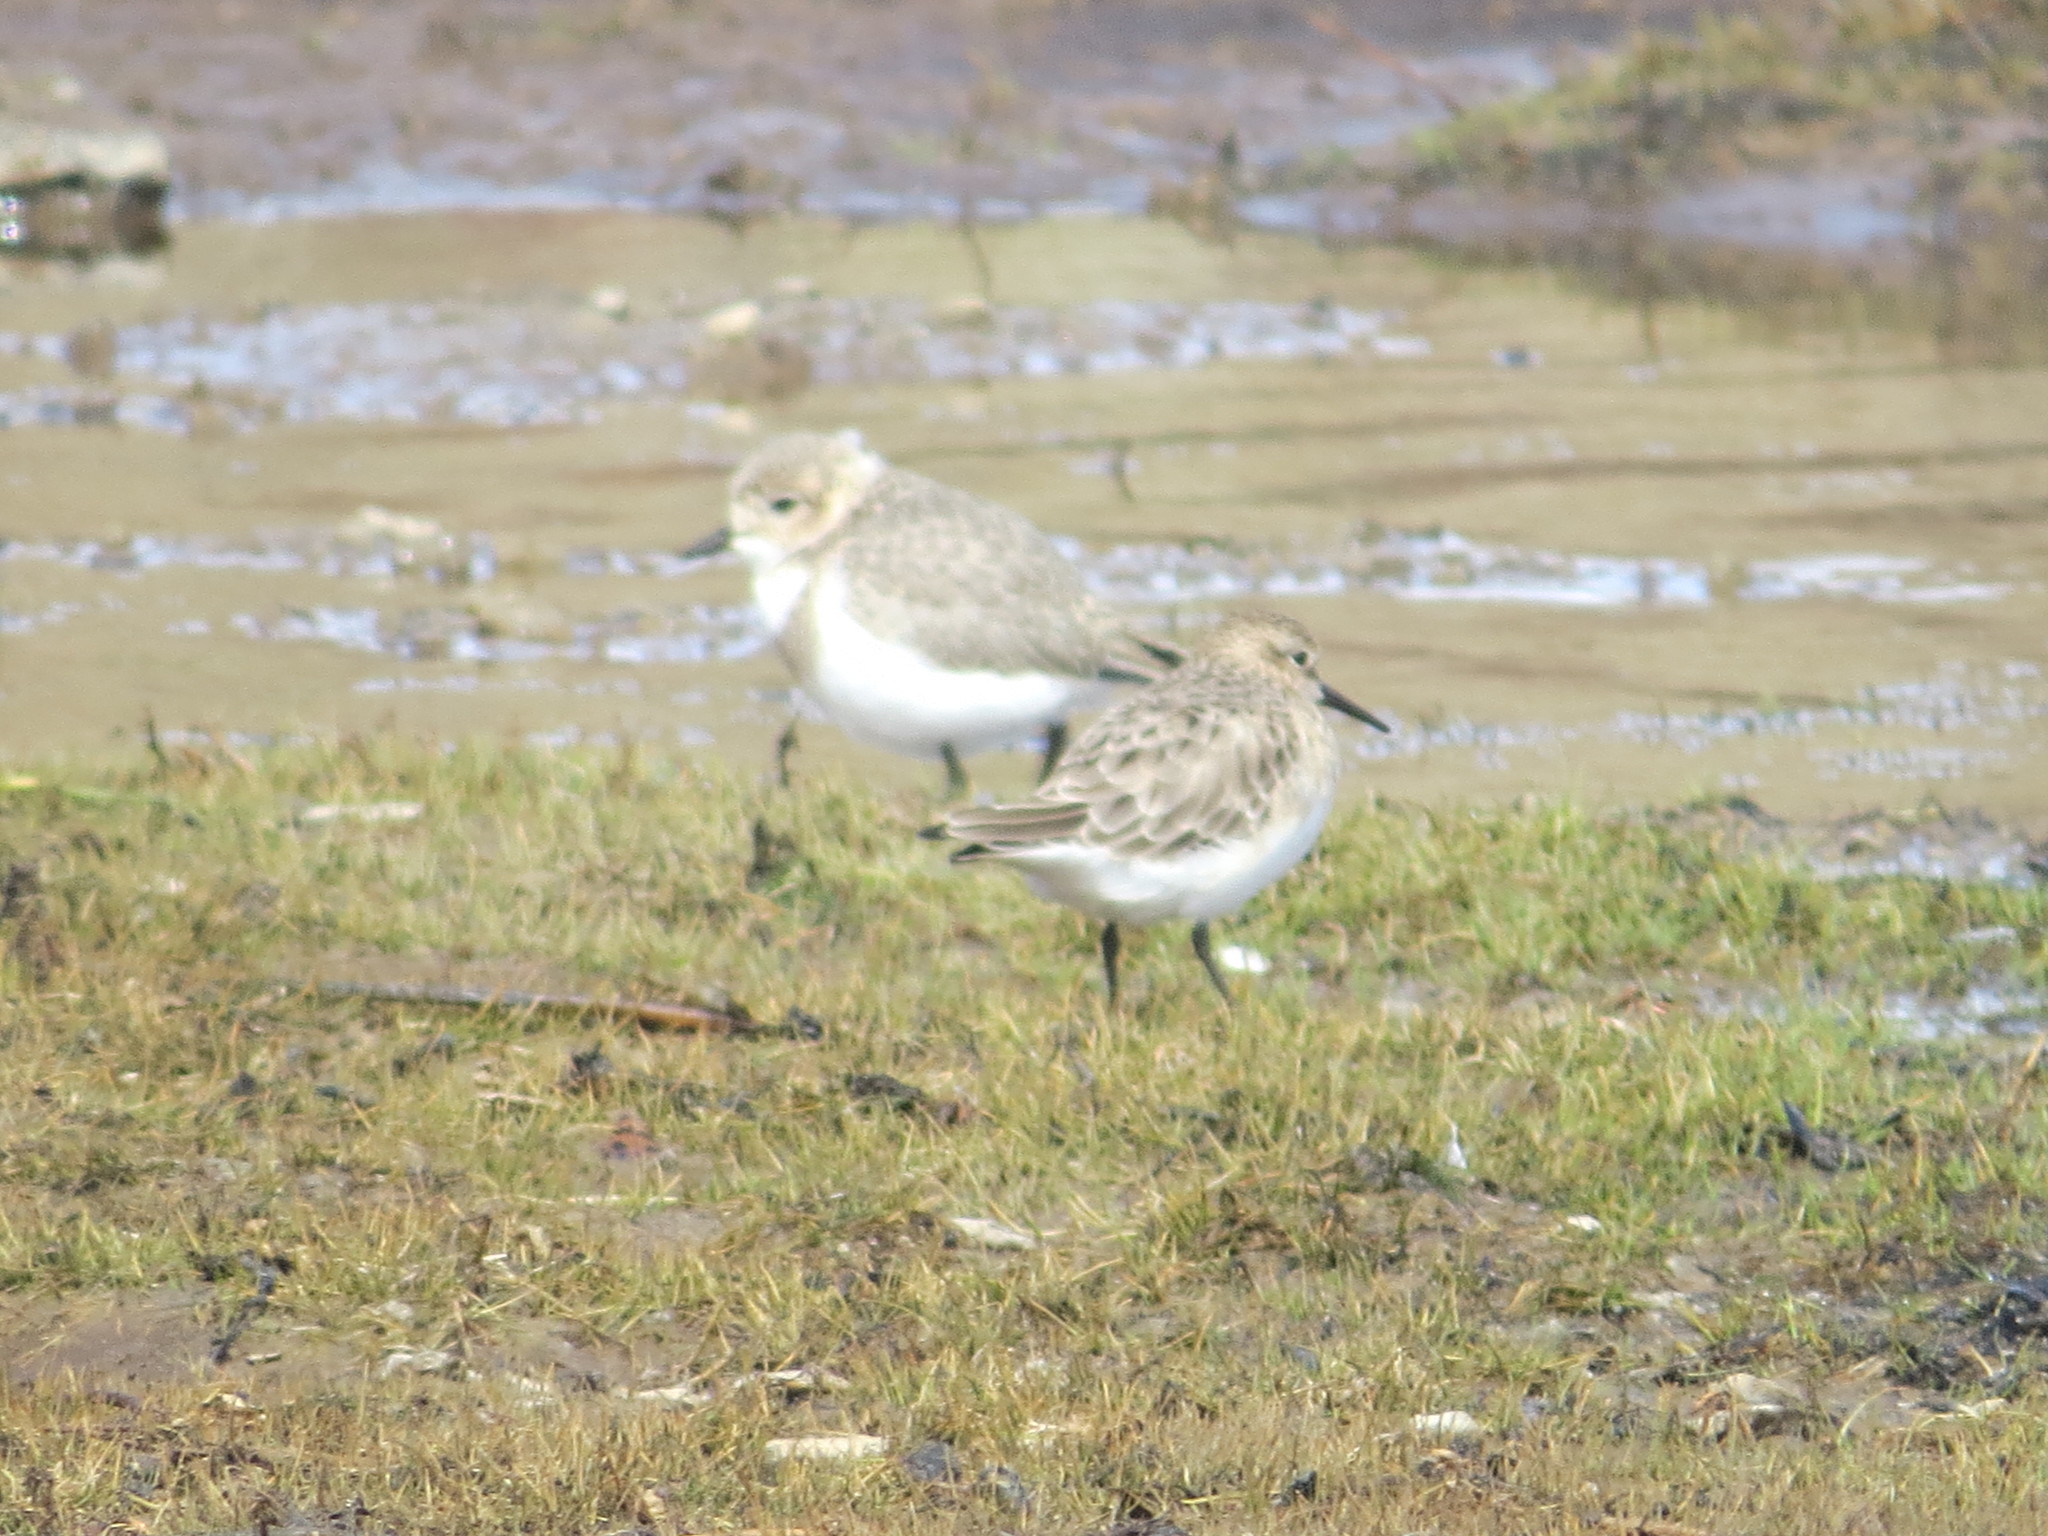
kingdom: Animalia
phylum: Chordata
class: Aves
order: Charadriiformes
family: Charadriidae
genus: Anarhynchus
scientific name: Anarhynchus
